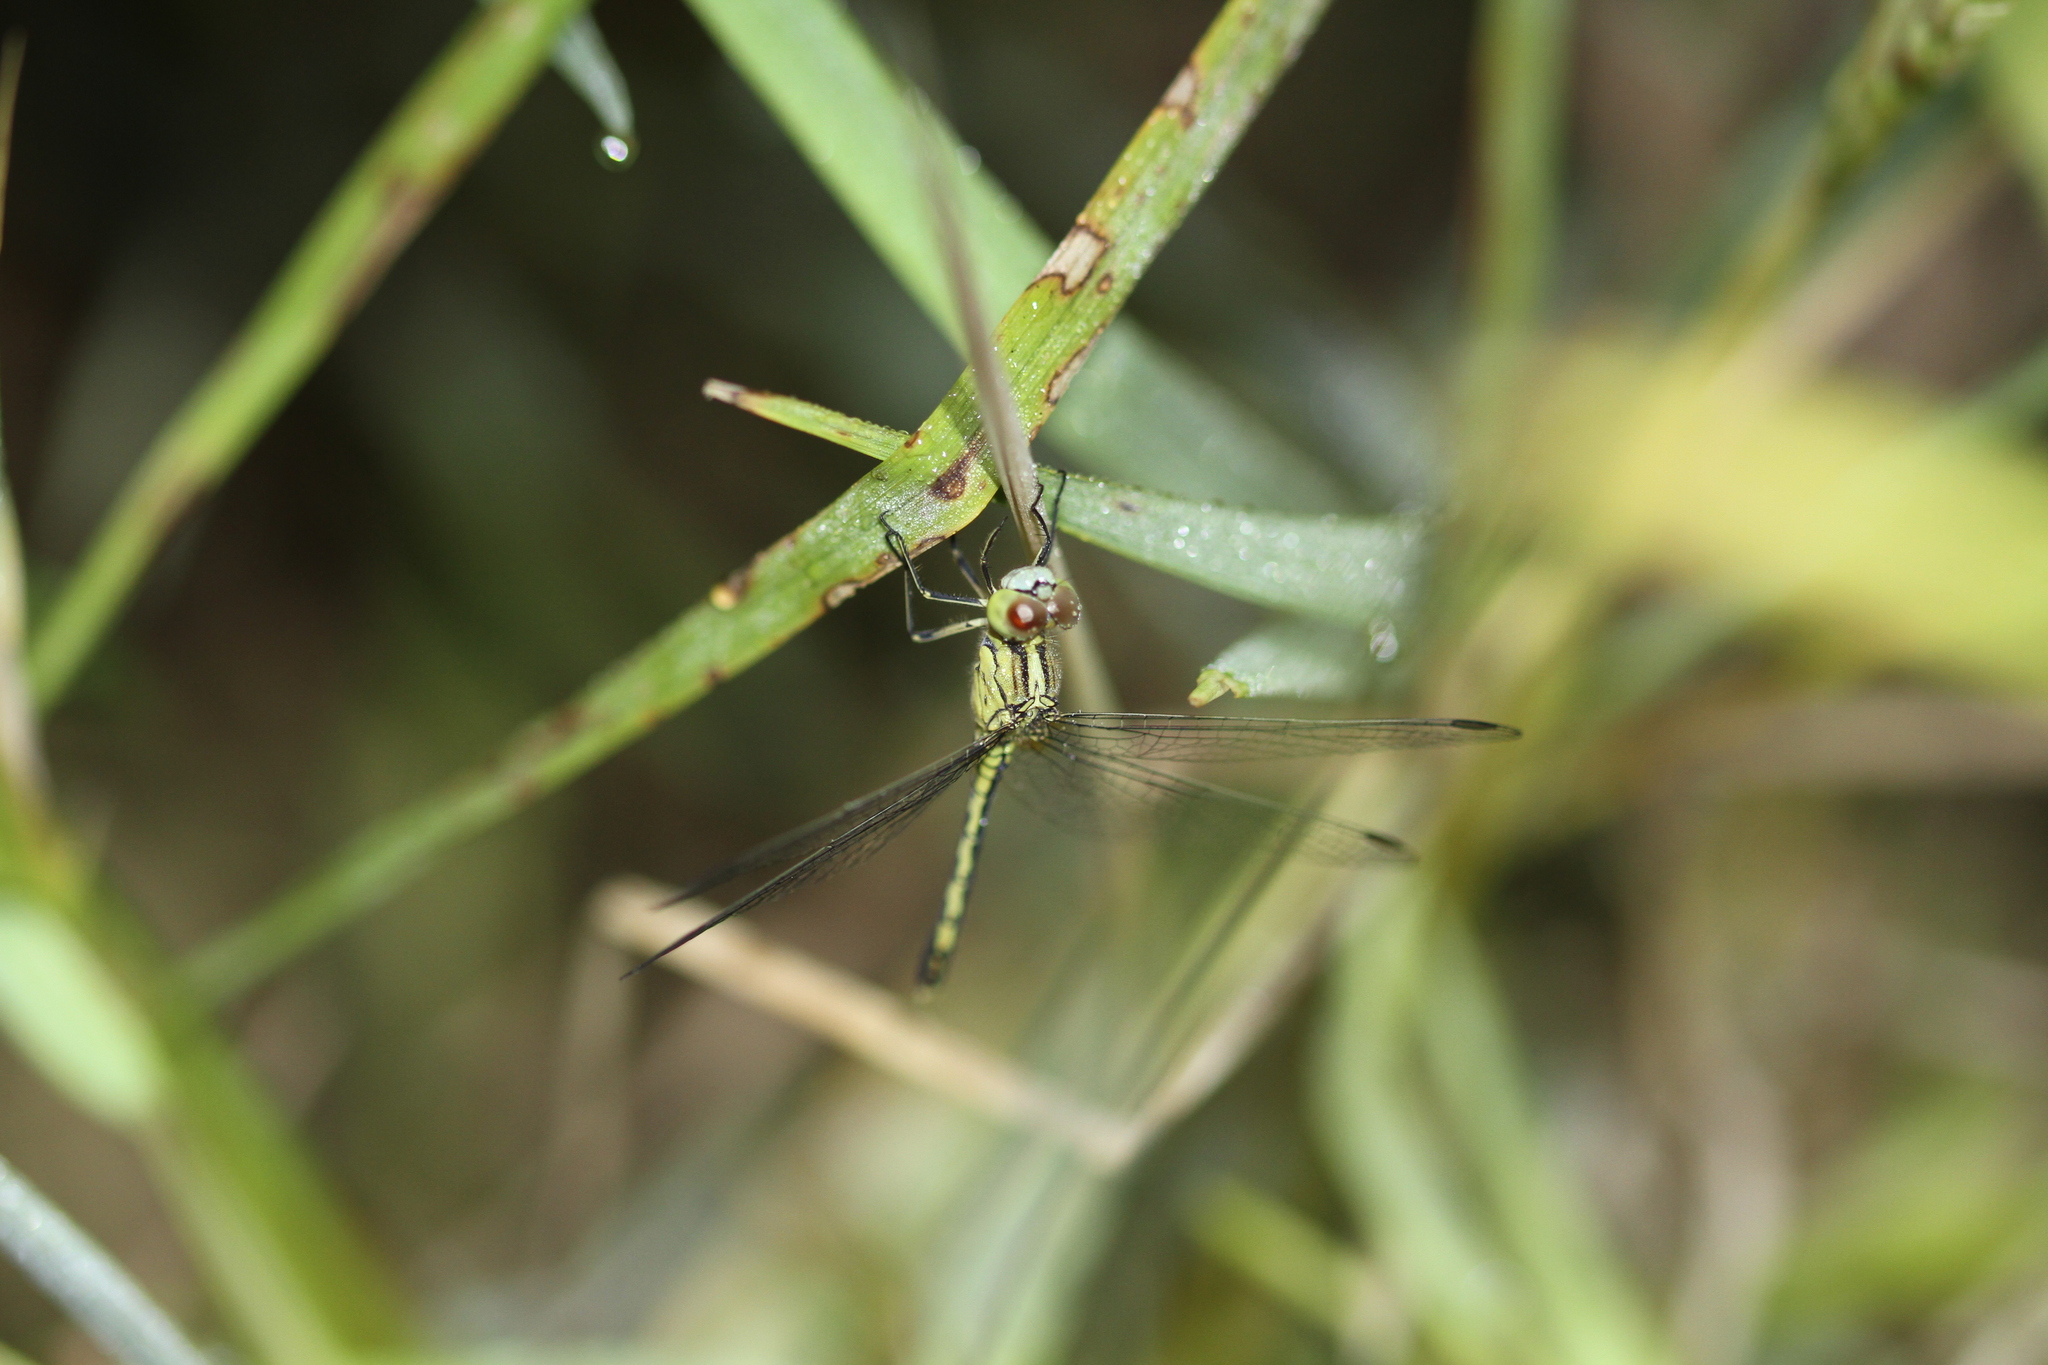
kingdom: Animalia
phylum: Arthropoda
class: Insecta
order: Odonata
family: Libellulidae
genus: Diplacodes
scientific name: Diplacodes trivialis
